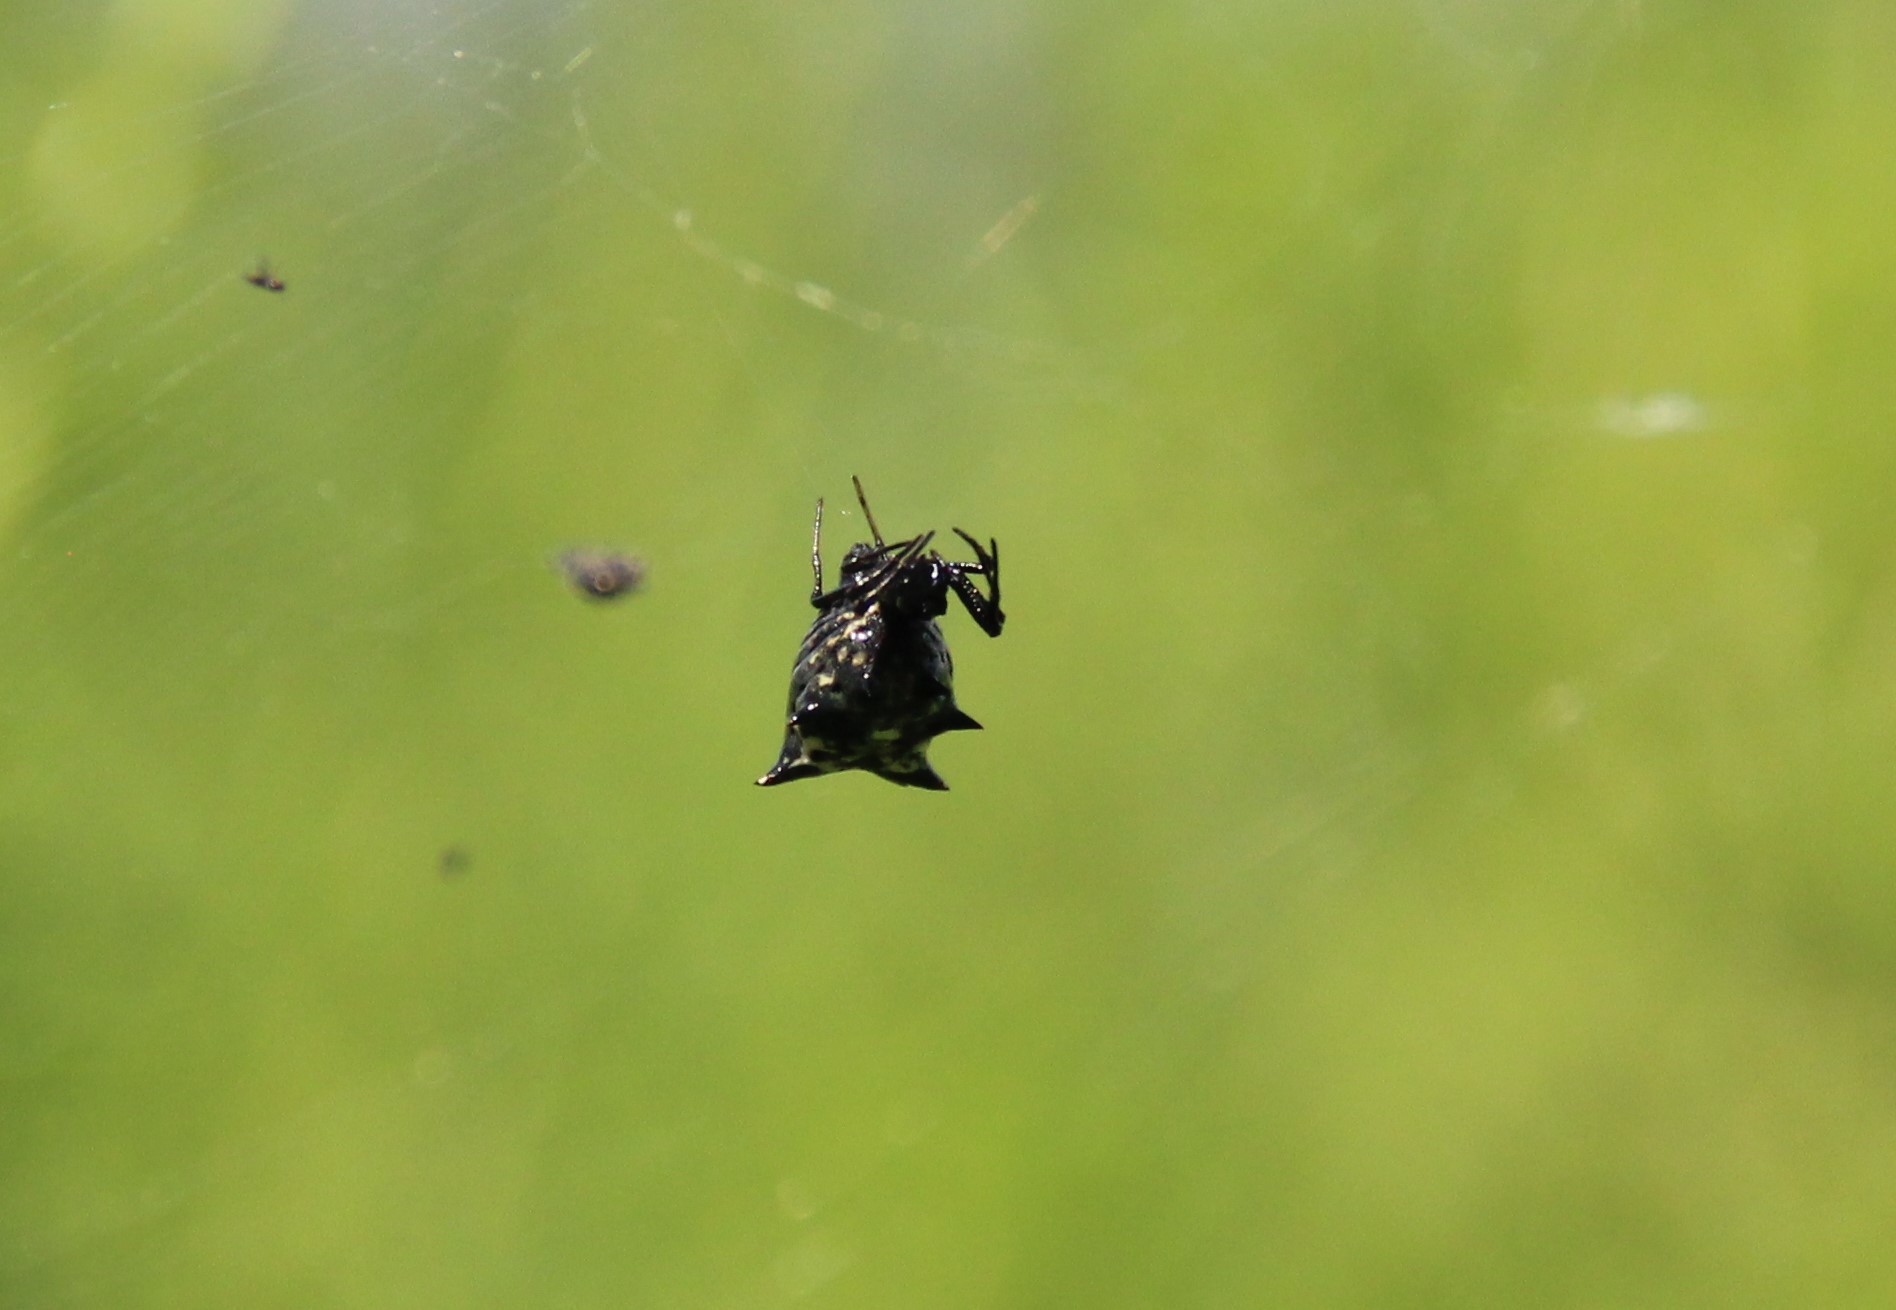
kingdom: Animalia
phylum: Arthropoda
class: Arachnida
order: Araneae
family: Araneidae
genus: Micrathena
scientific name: Micrathena gracilis
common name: Orb weavers
